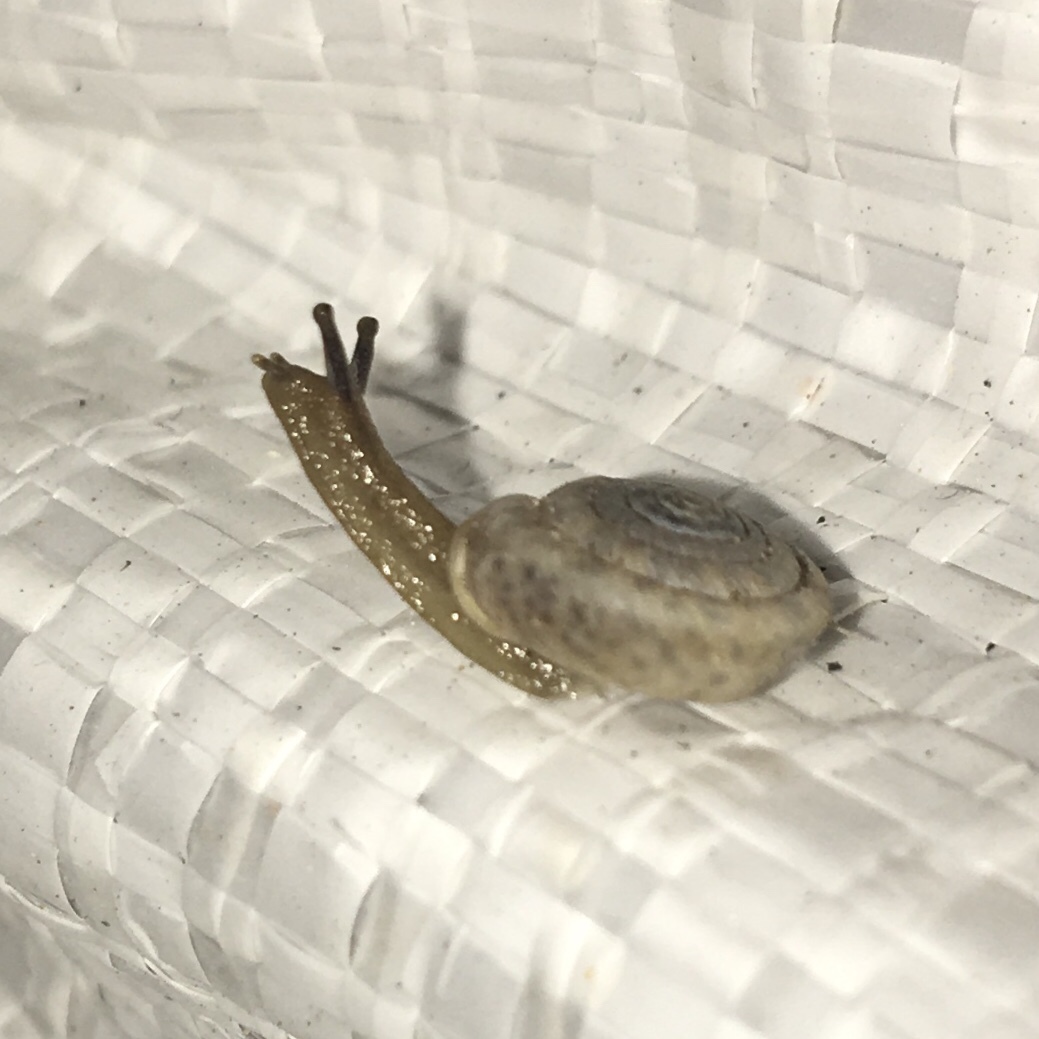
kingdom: Animalia
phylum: Mollusca
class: Gastropoda
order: Stylommatophora
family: Polygyridae
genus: Polygyra
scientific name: Polygyra cereolus
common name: Southern flatcone snail
